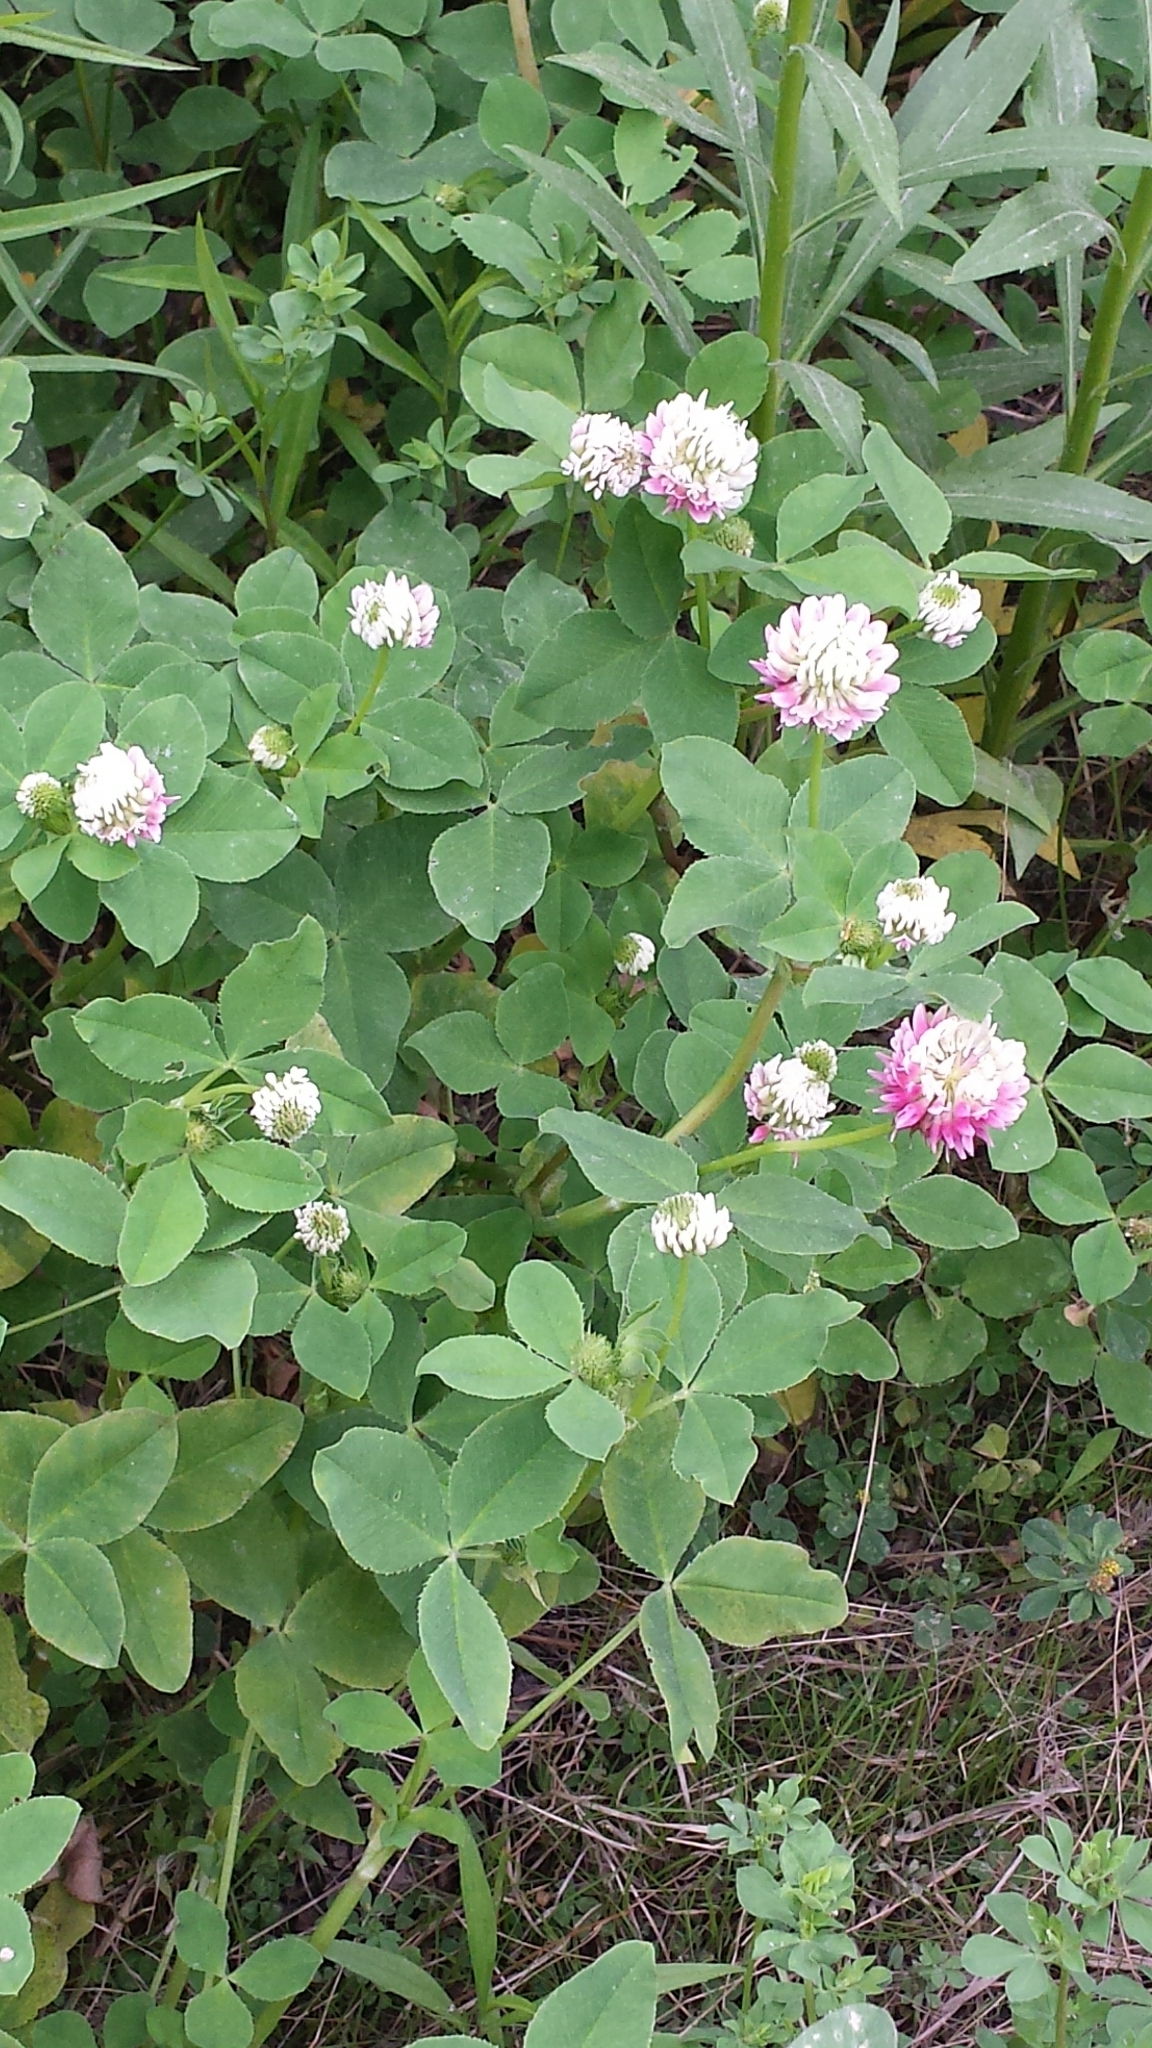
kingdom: Plantae
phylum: Tracheophyta
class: Magnoliopsida
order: Fabales
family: Fabaceae
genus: Trifolium
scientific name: Trifolium hybridum
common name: Alsike clover
